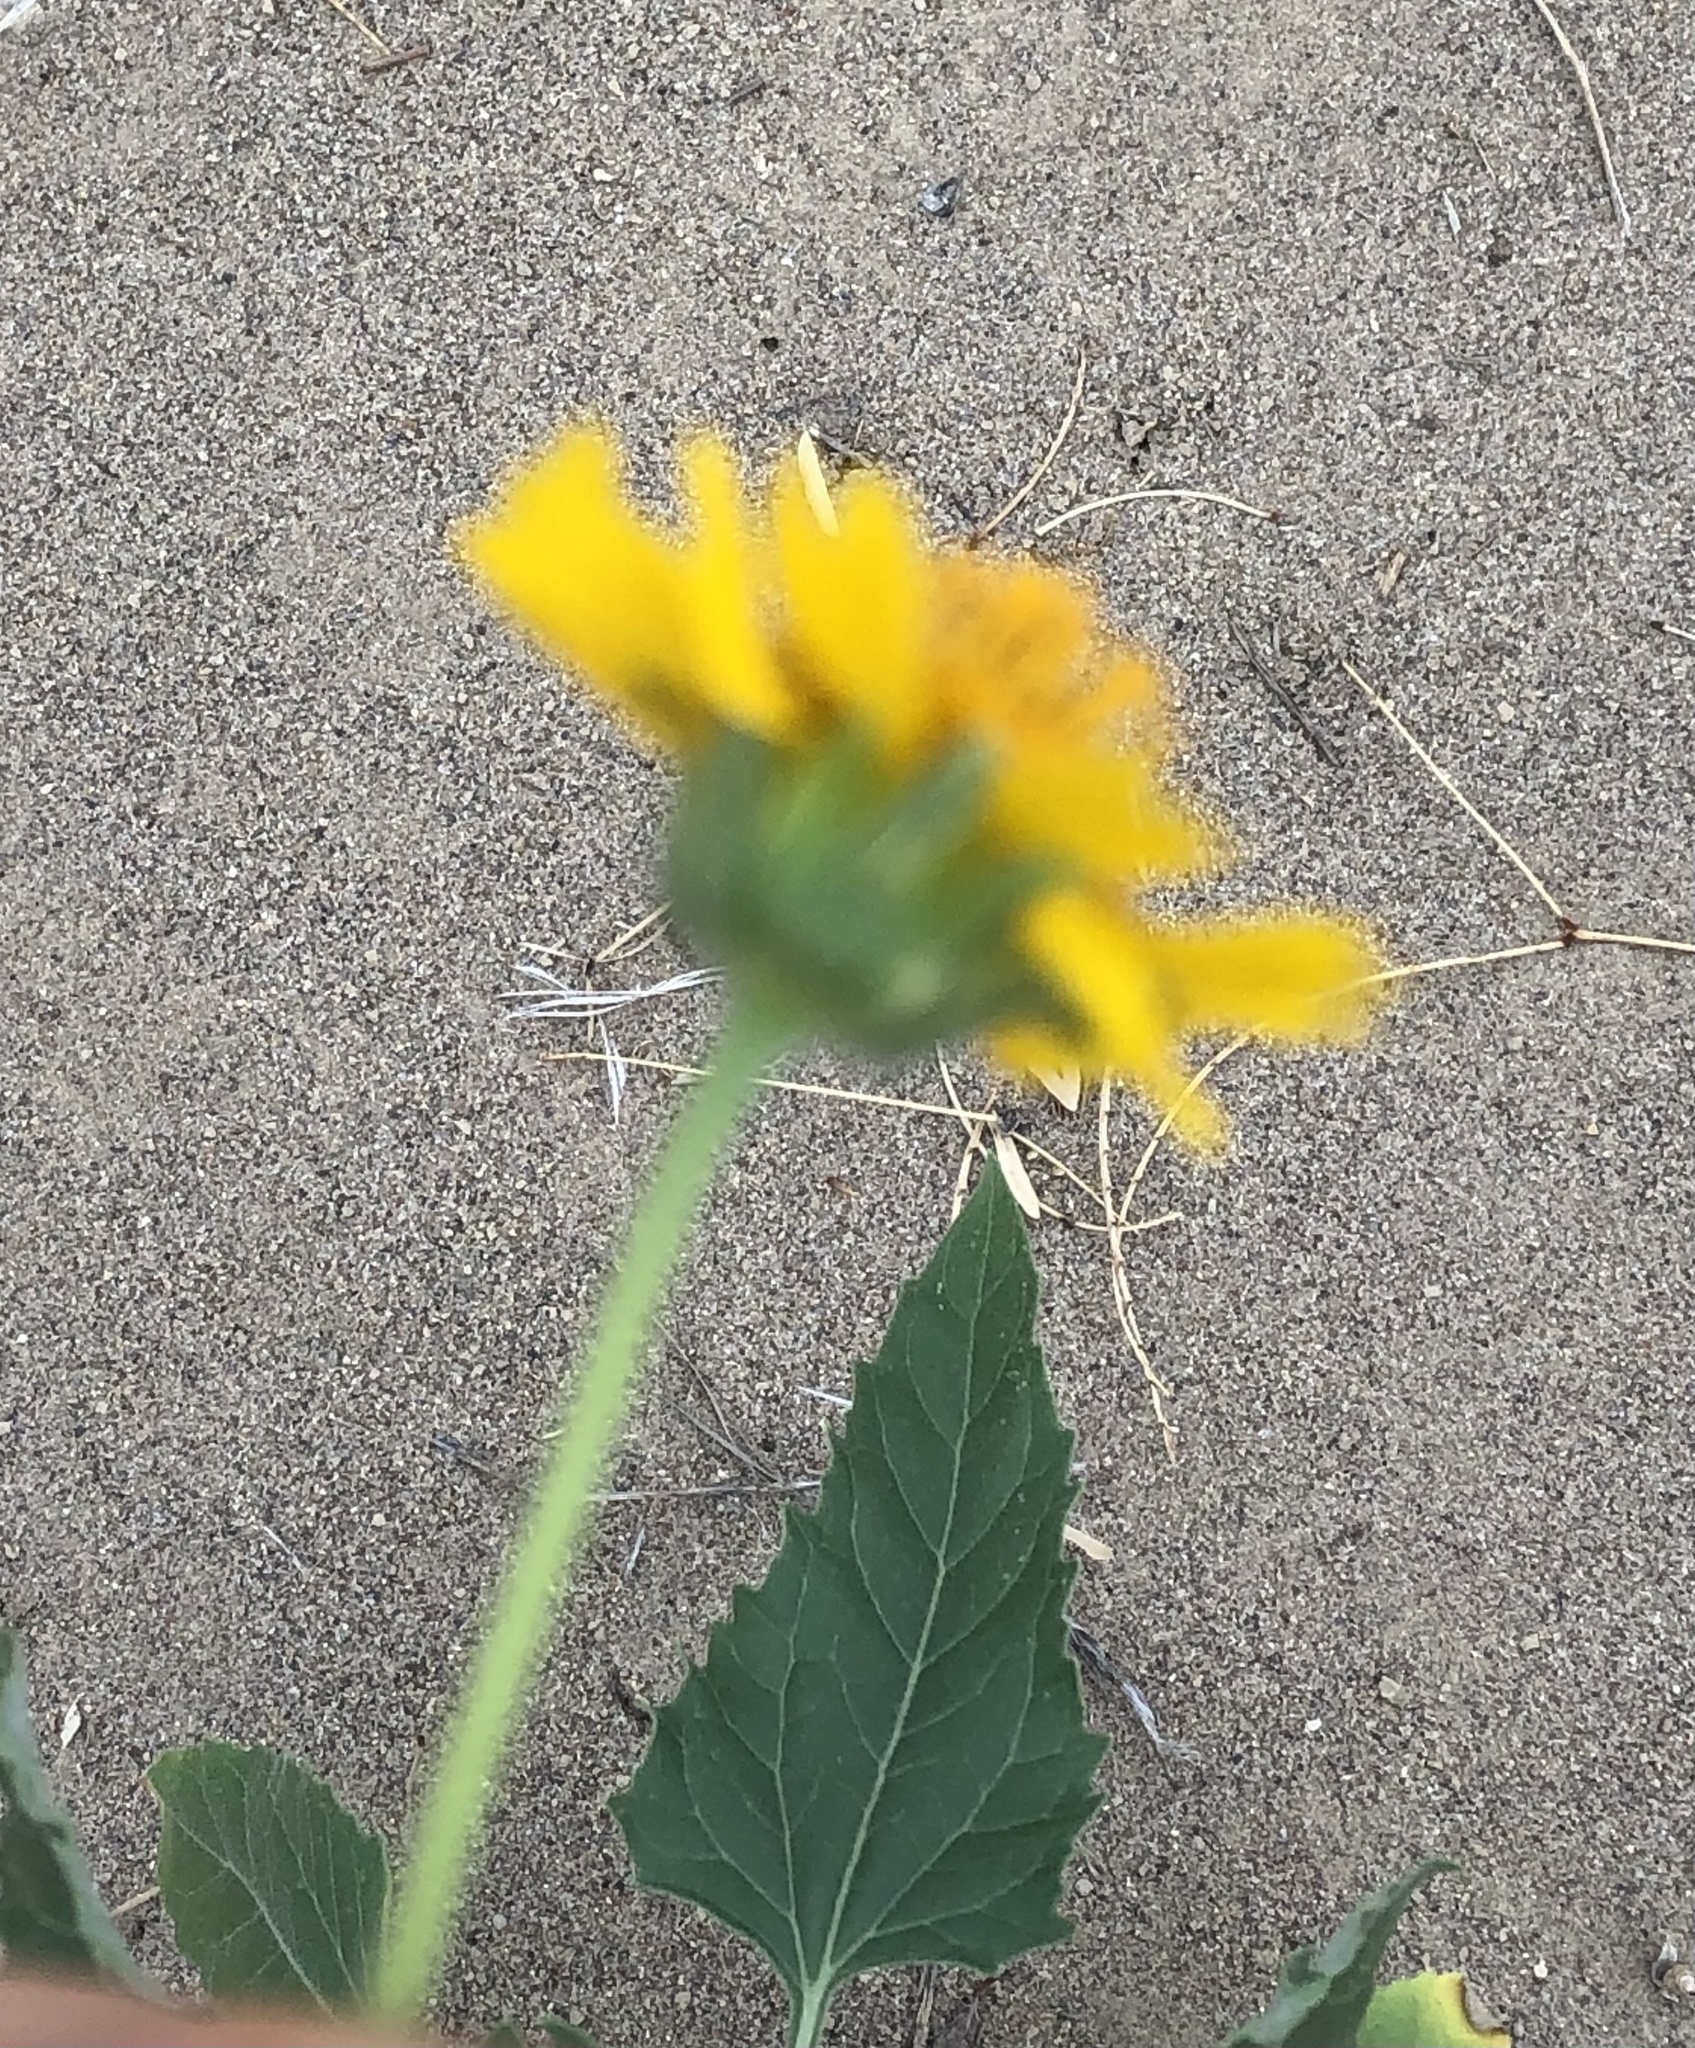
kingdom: Plantae
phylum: Tracheophyta
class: Magnoliopsida
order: Asterales
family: Asteraceae
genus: Verbesina
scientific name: Verbesina encelioides
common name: Golden crownbeard
